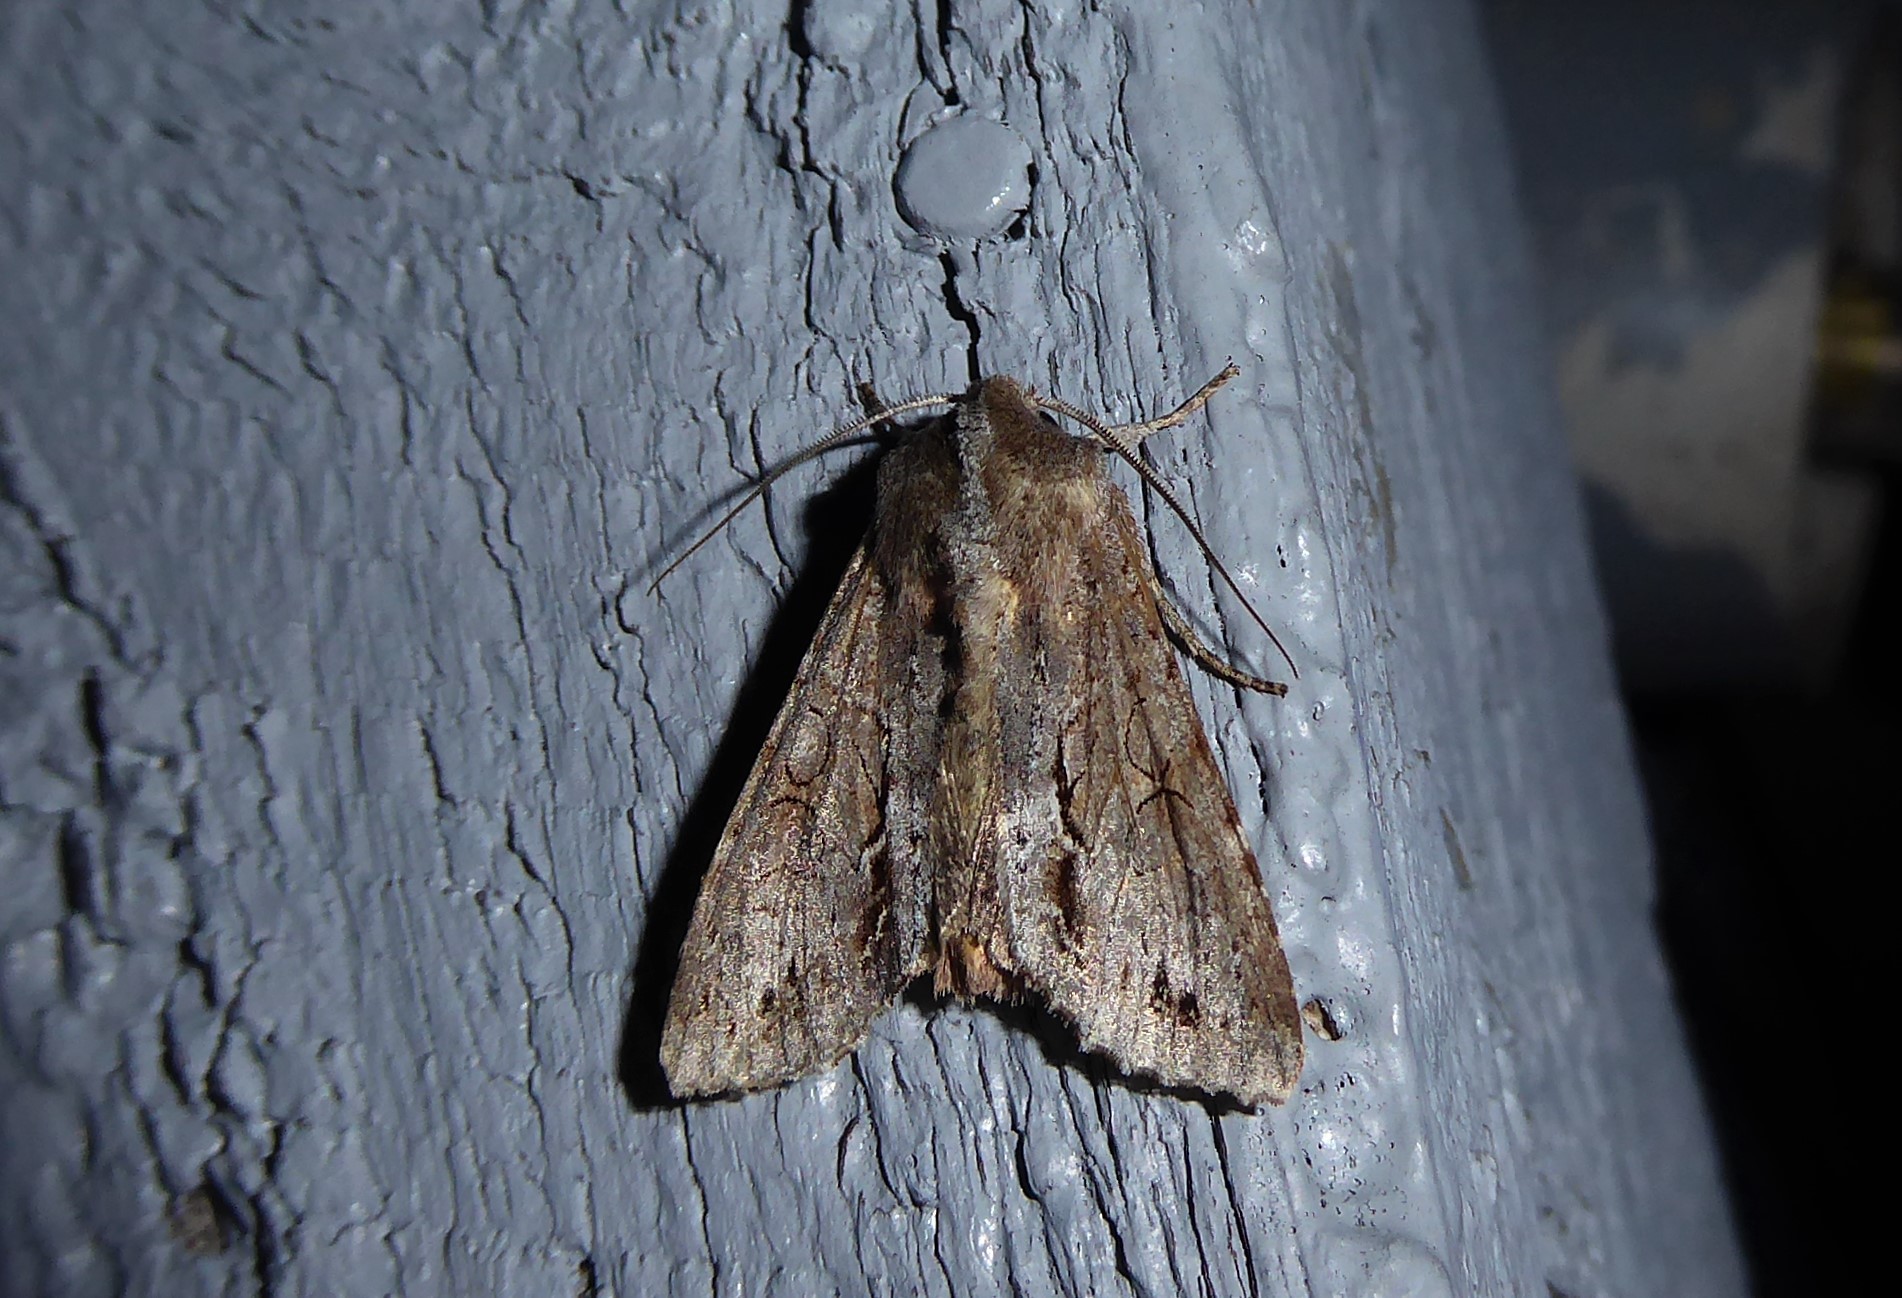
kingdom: Animalia
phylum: Arthropoda
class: Insecta
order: Lepidoptera
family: Noctuidae
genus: Ichneutica
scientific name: Ichneutica
